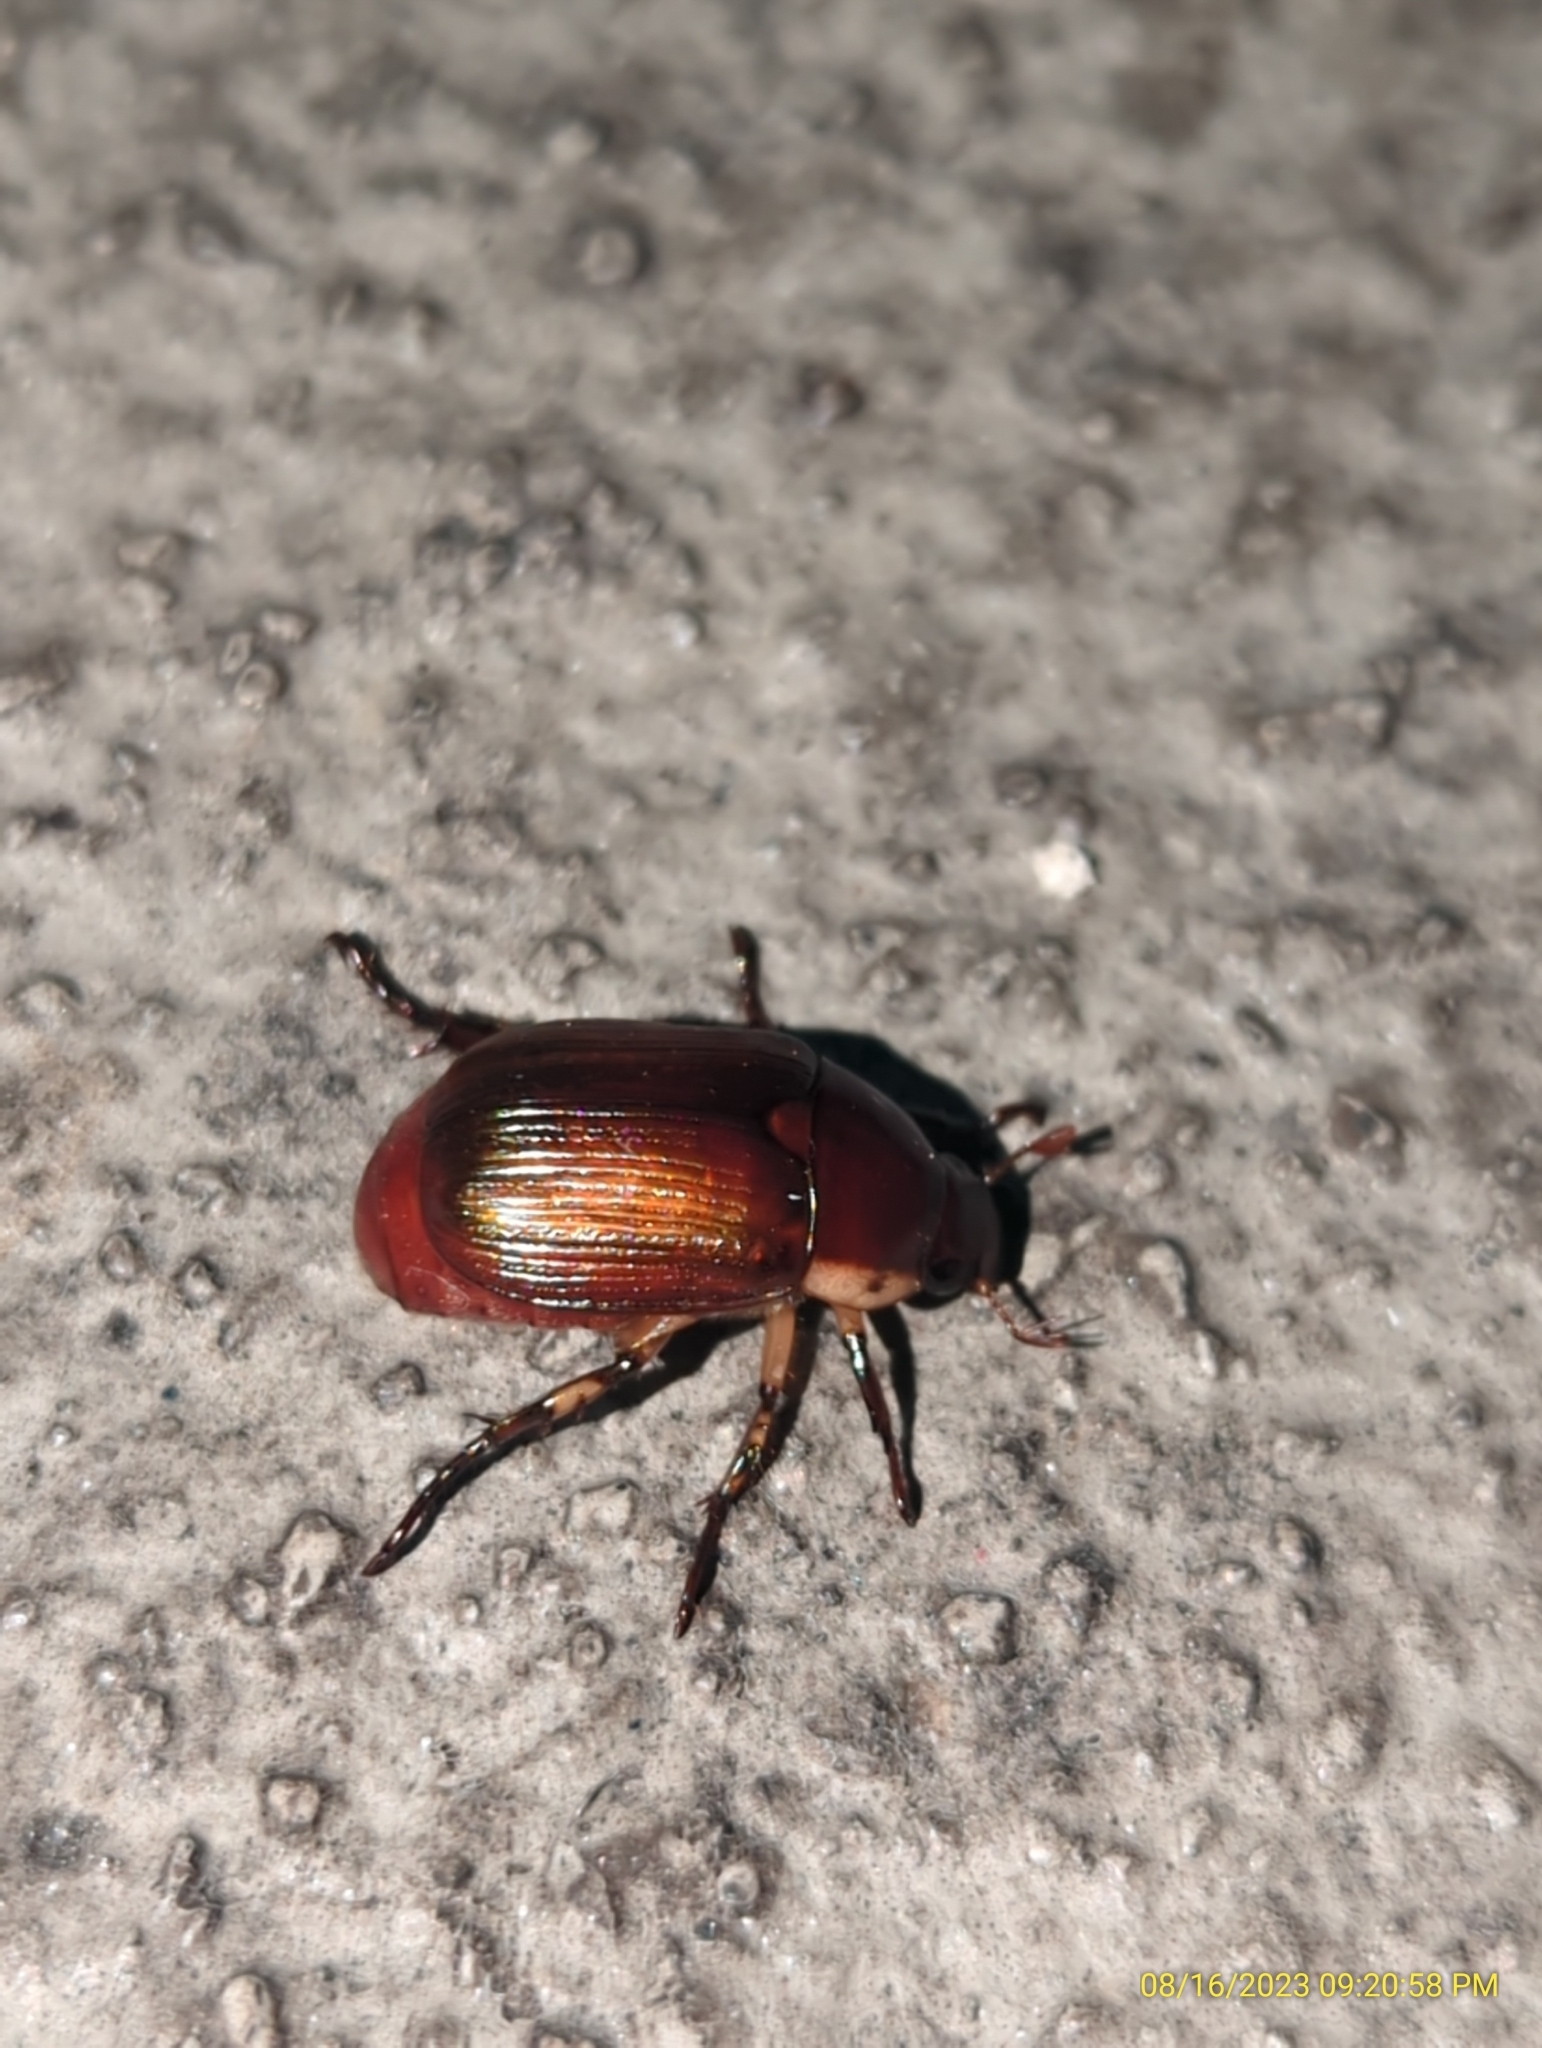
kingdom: Animalia
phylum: Arthropoda
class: Insecta
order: Coleoptera
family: Scarabaeidae
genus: Callistethus
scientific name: Callistethus marginatus
